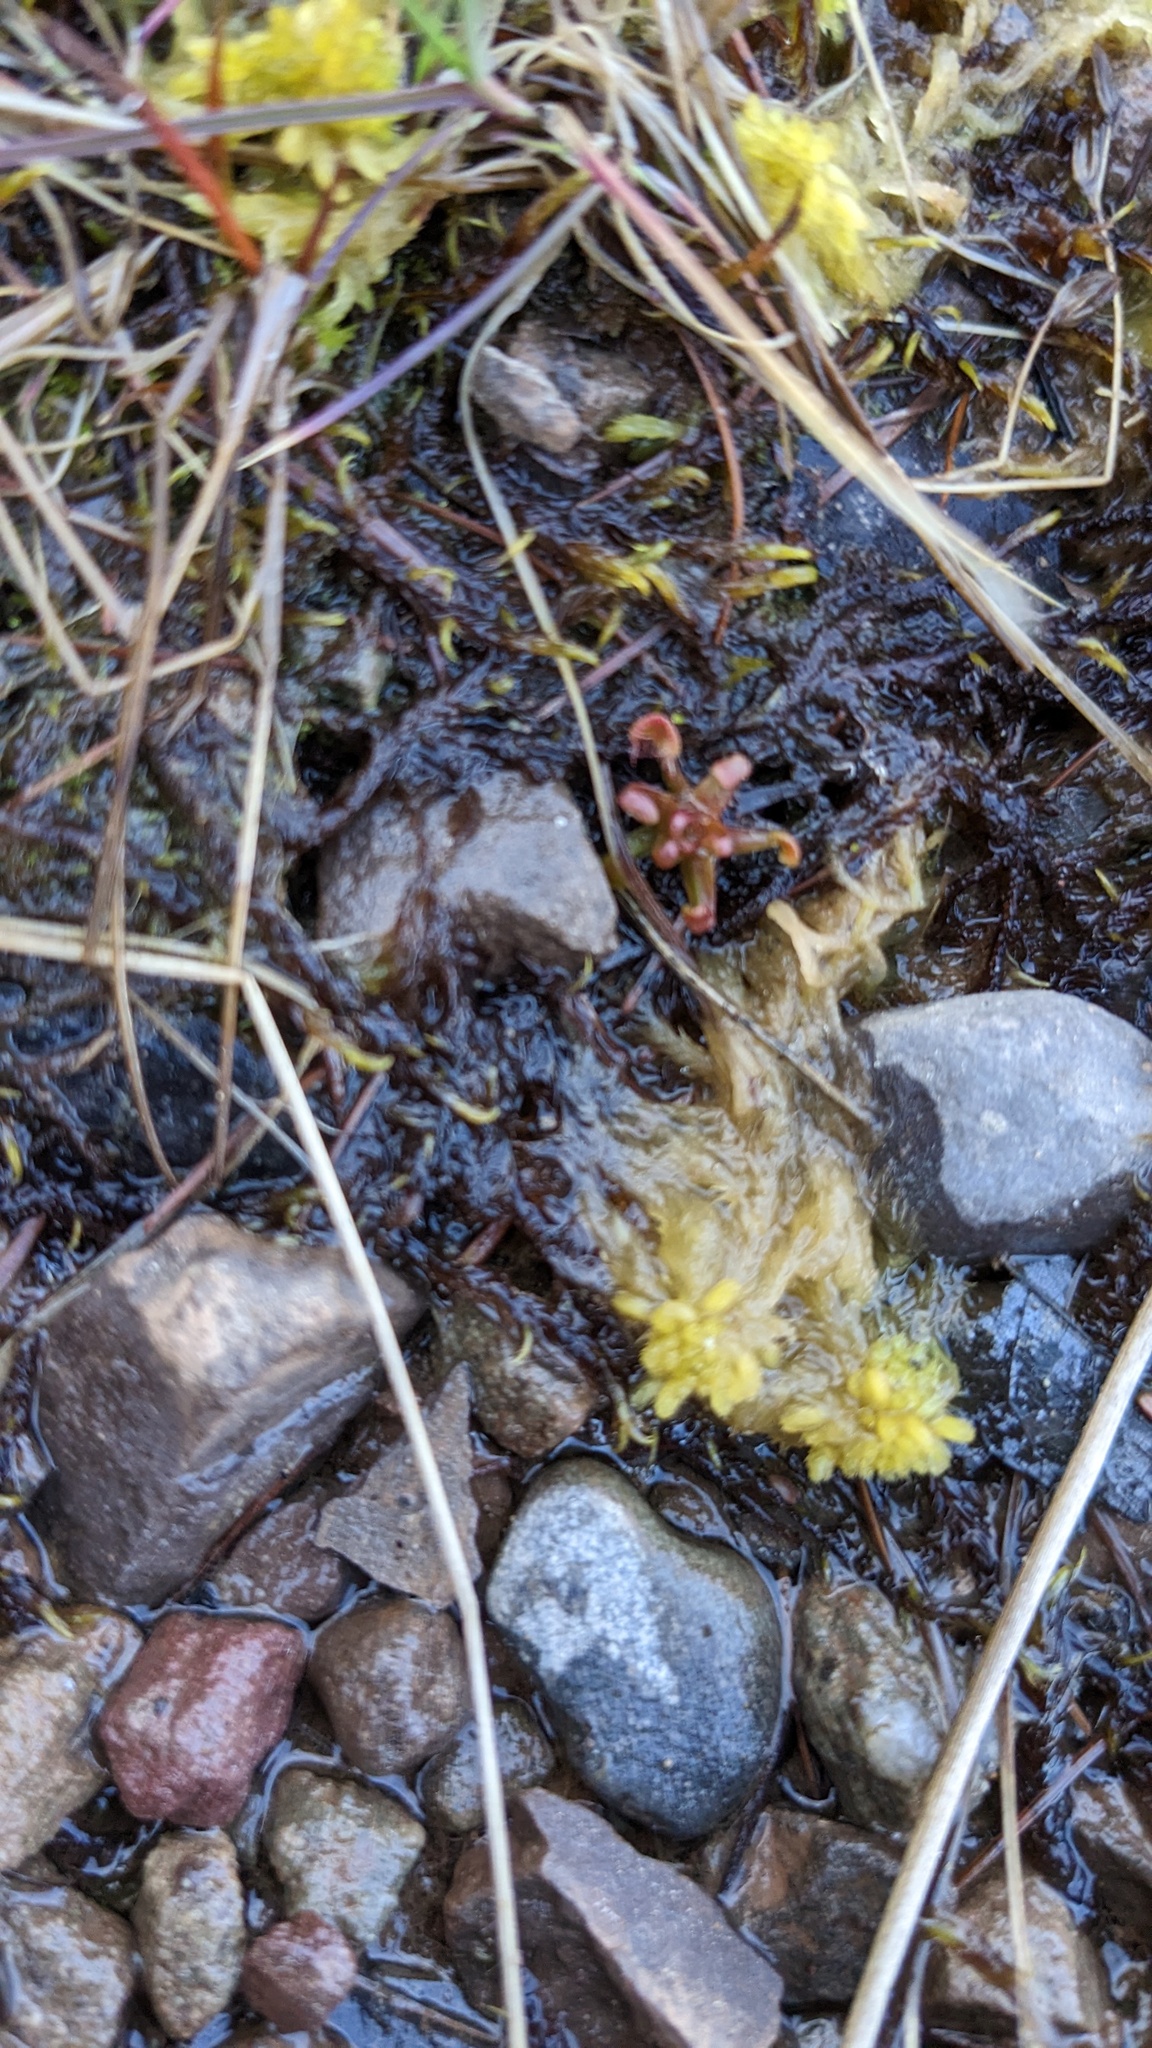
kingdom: Plantae
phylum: Tracheophyta
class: Magnoliopsida
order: Caryophyllales
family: Droseraceae
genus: Drosera
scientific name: Drosera rotundifolia
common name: Round-leaved sundew
